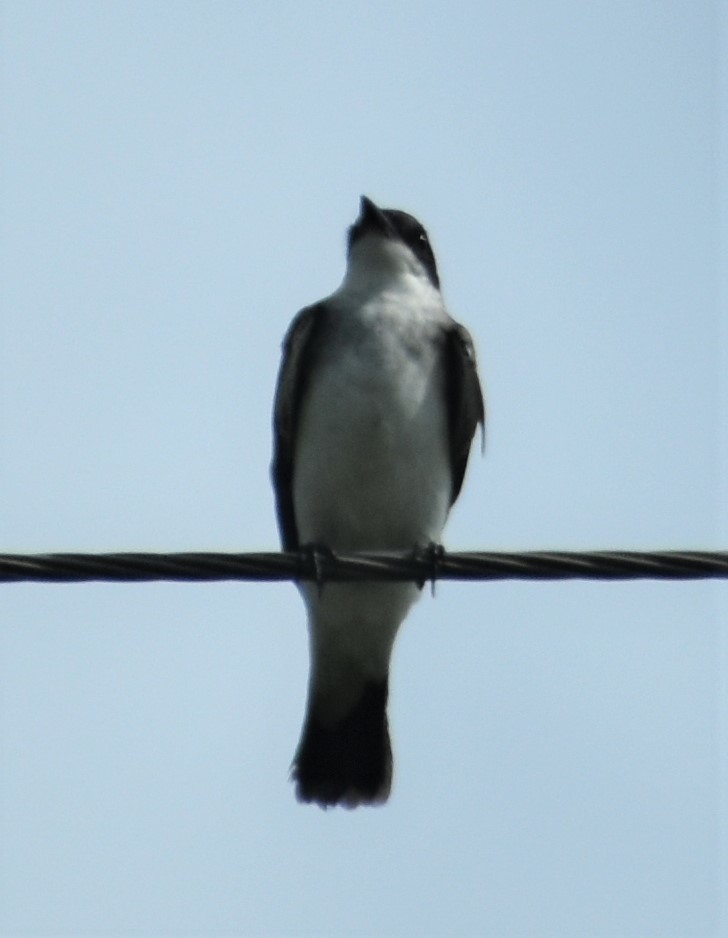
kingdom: Animalia
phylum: Chordata
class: Aves
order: Passeriformes
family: Tyrannidae
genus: Tyrannus
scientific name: Tyrannus tyrannus
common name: Eastern kingbird
